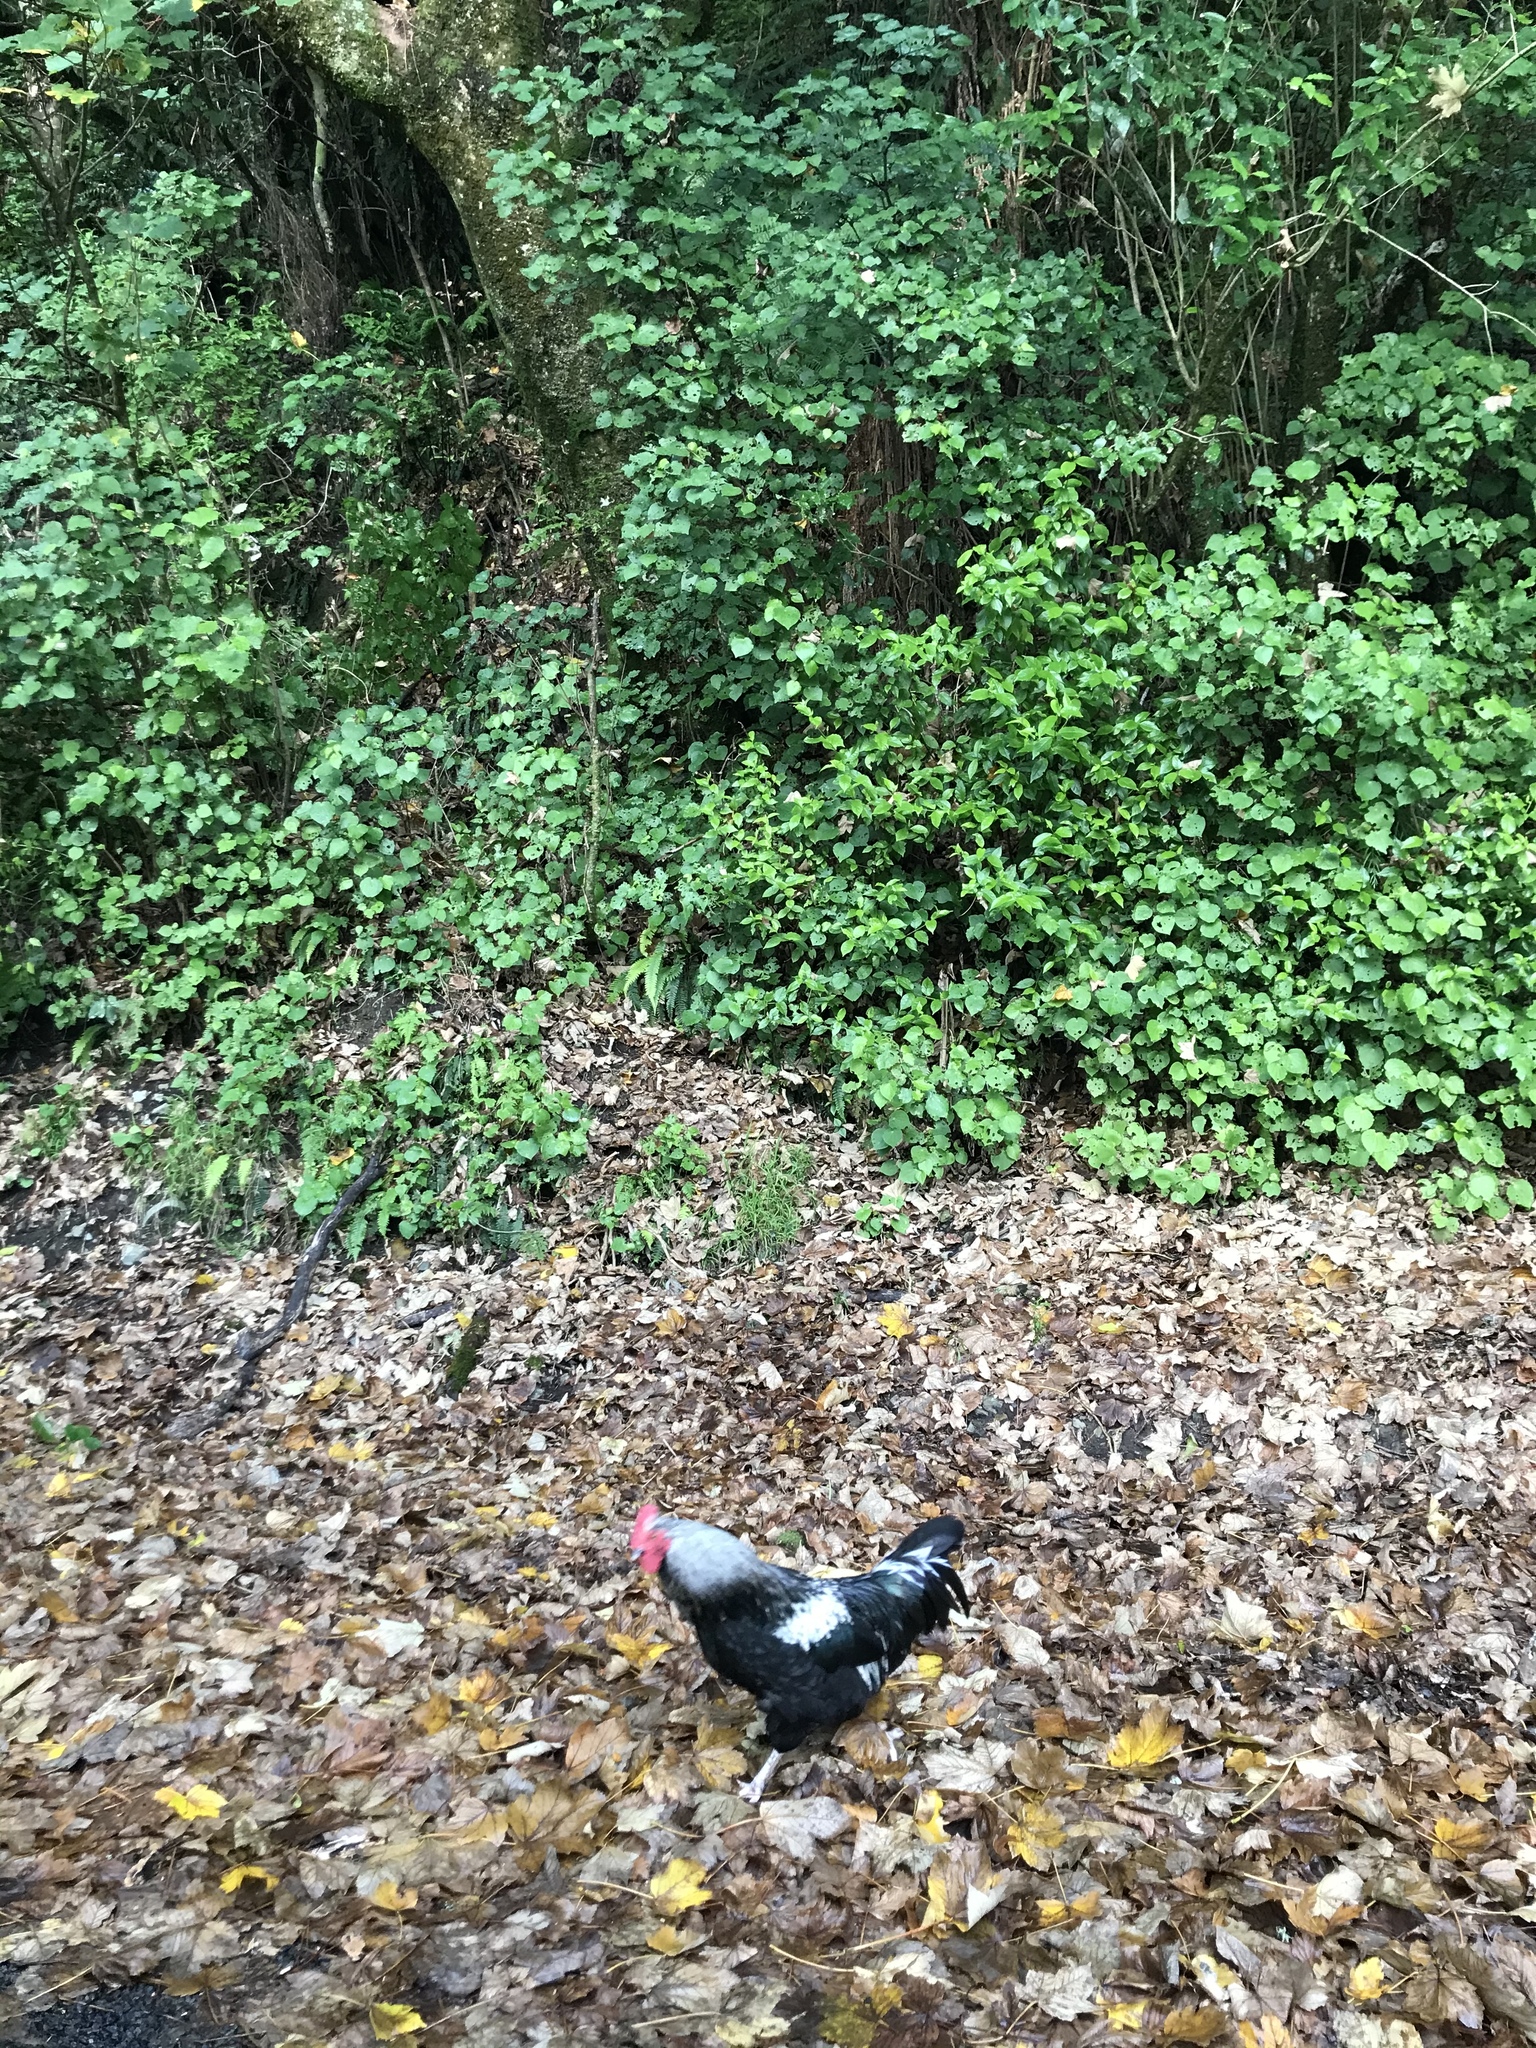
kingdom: Animalia
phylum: Chordata
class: Aves
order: Galliformes
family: Phasianidae
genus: Gallus
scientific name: Gallus gallus
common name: Red junglefowl
